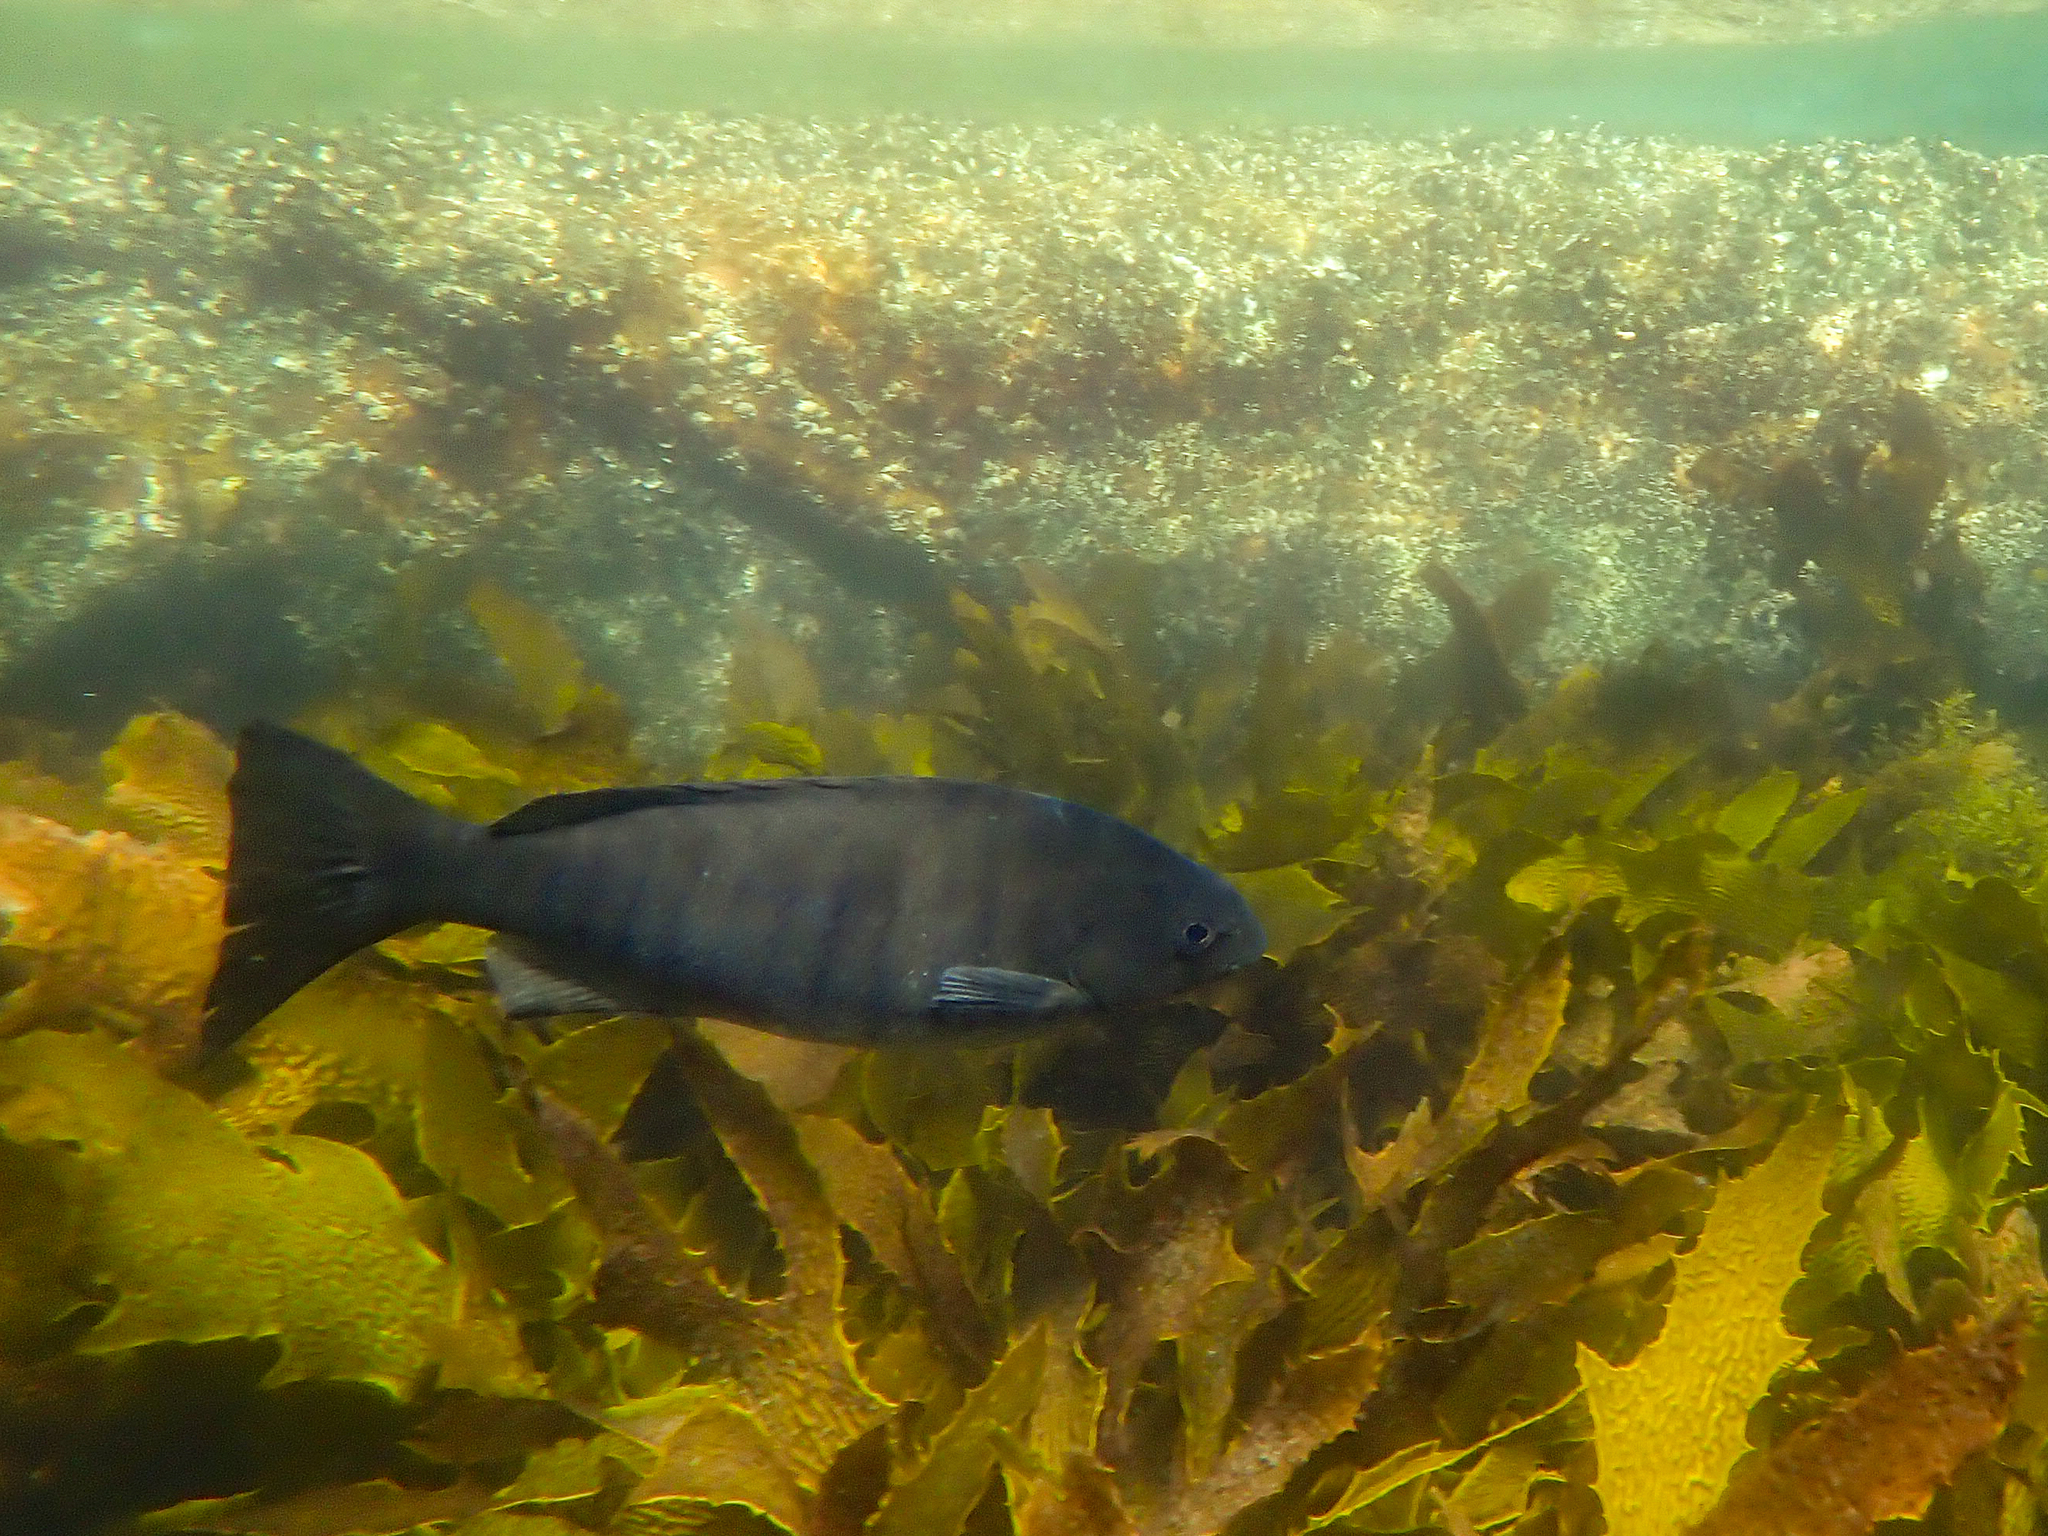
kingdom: Animalia
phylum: Chordata
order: Perciformes
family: Kyphosidae
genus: Girella
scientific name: Girella tricuspidata
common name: Parore
